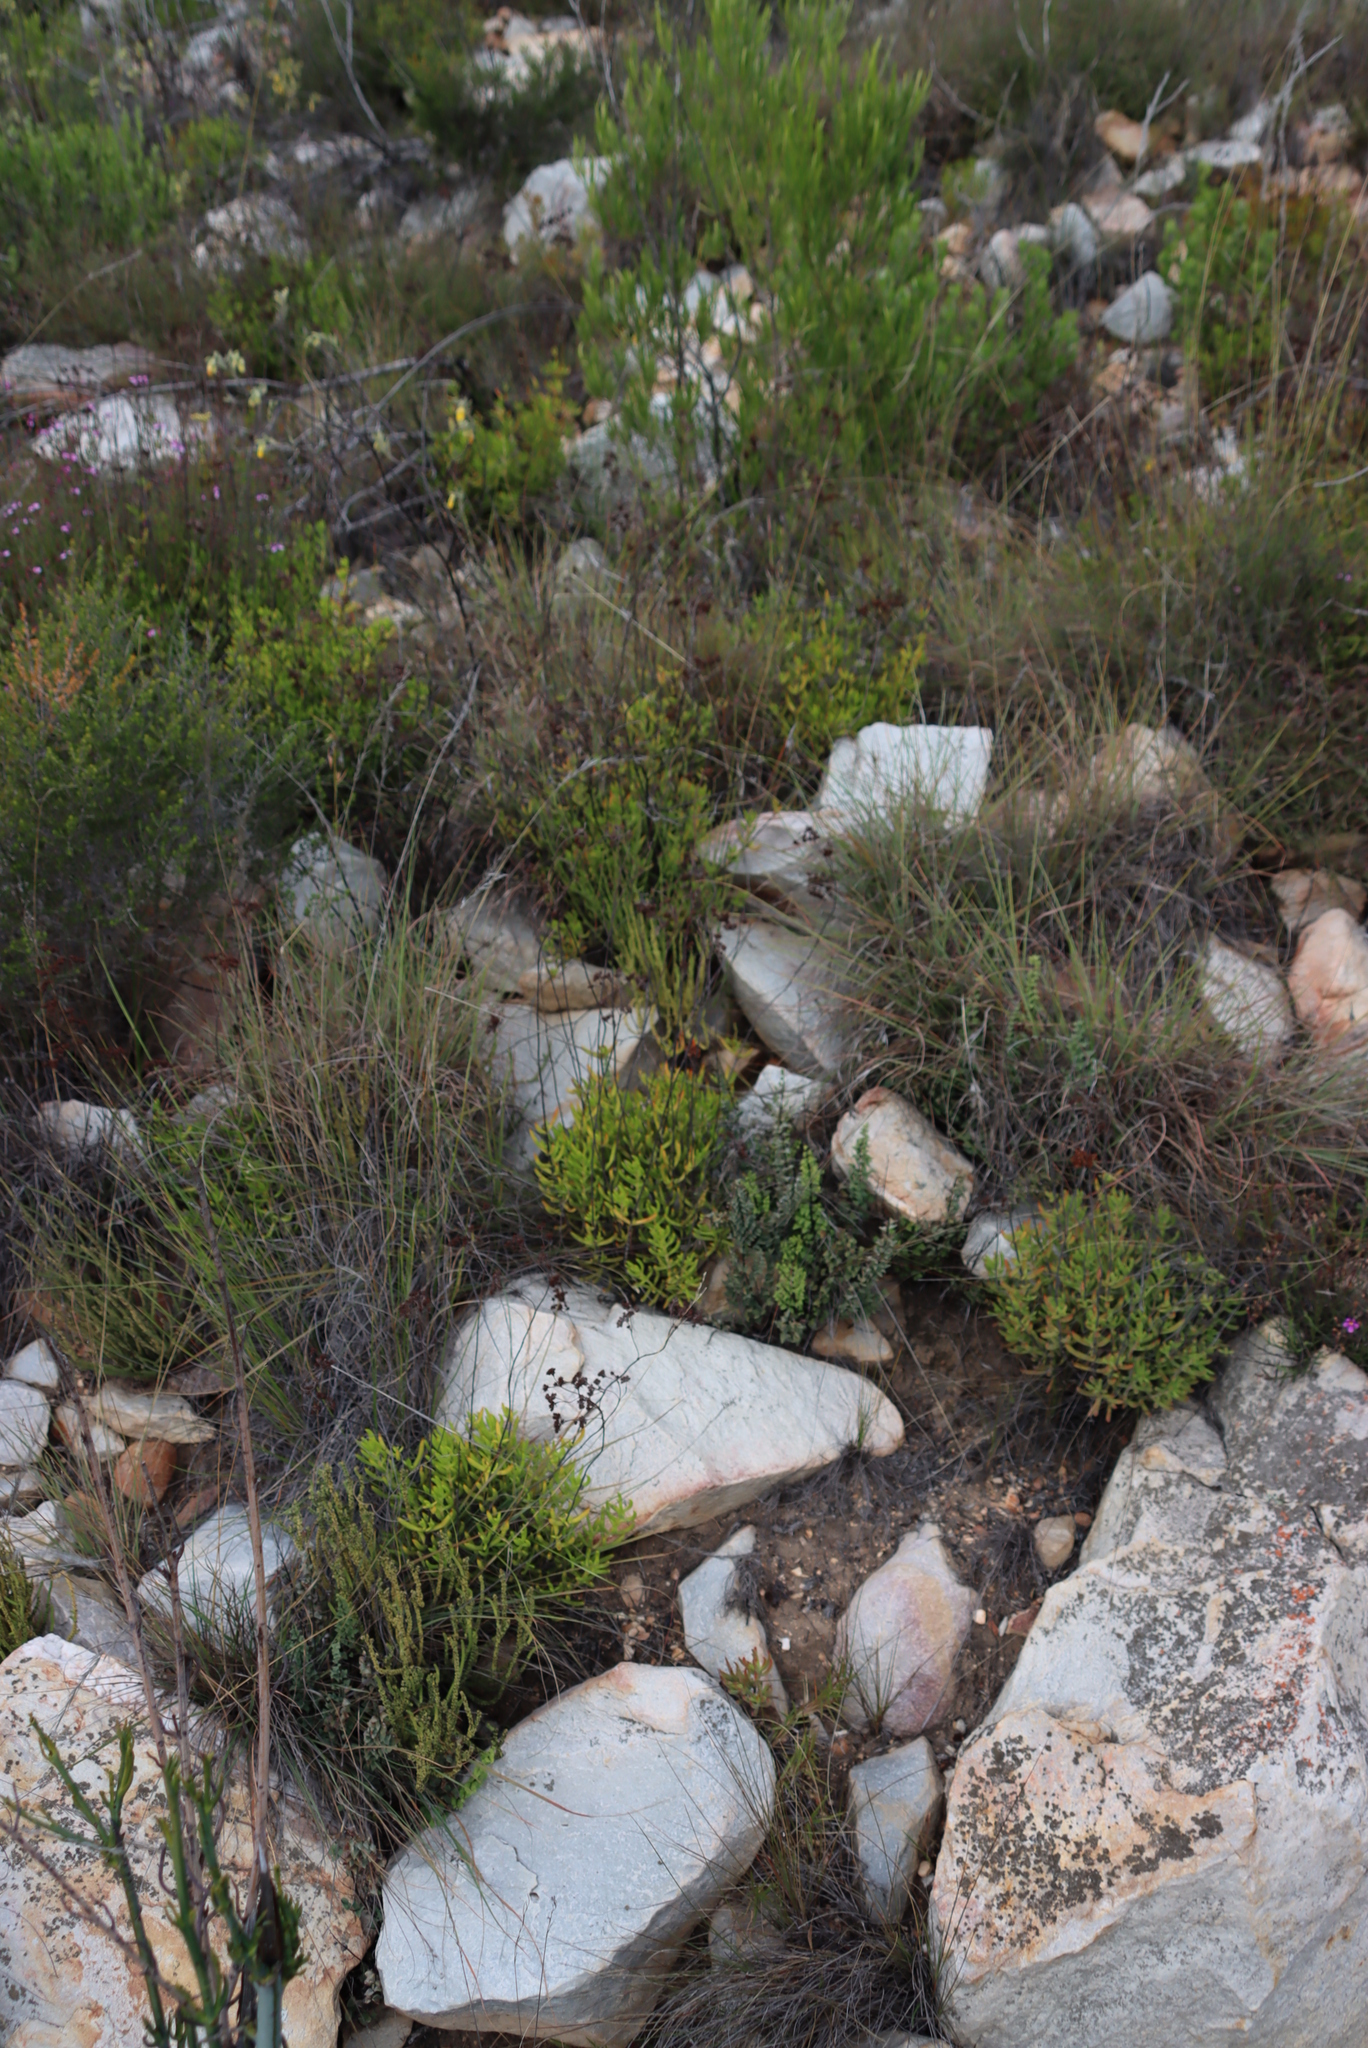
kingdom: Plantae
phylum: Tracheophyta
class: Magnoliopsida
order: Saxifragales
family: Crassulaceae
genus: Crassula
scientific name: Crassula mollis
